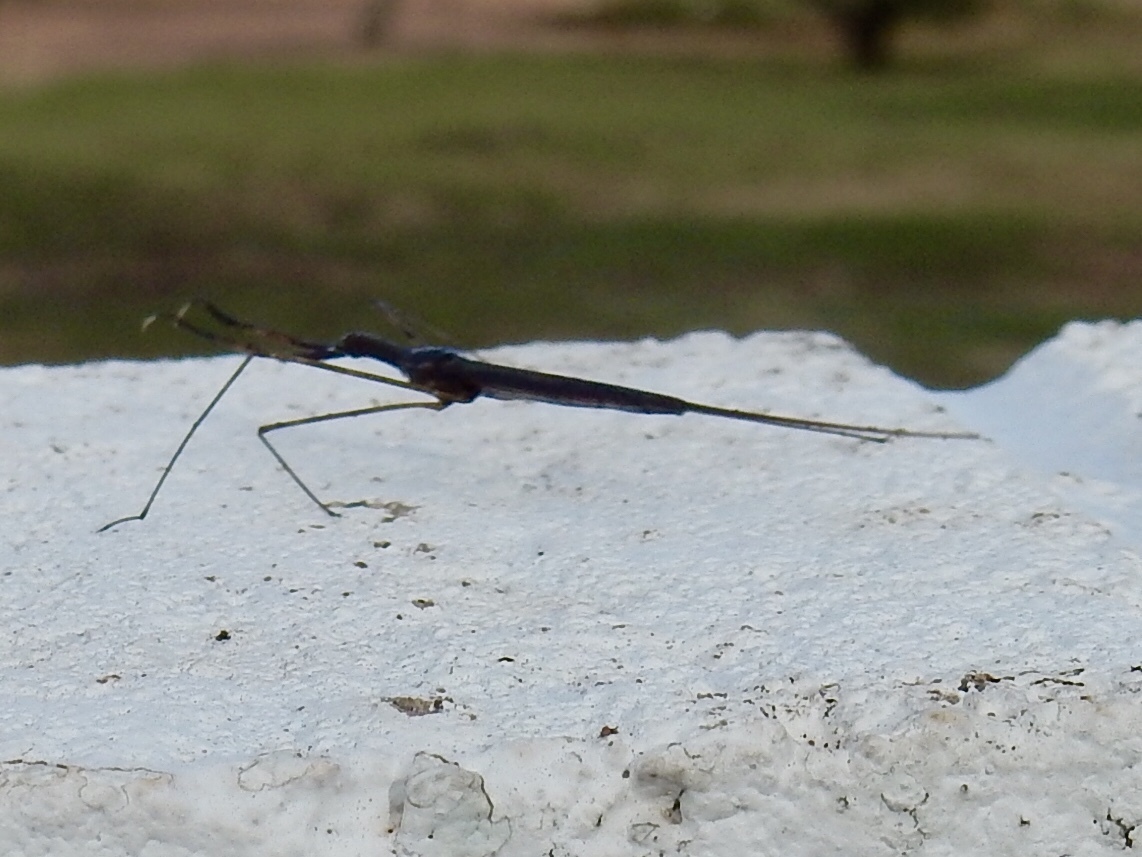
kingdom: Animalia
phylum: Arthropoda
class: Insecta
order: Hemiptera
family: Nepidae
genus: Ranatra
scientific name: Ranatra quadridentata
